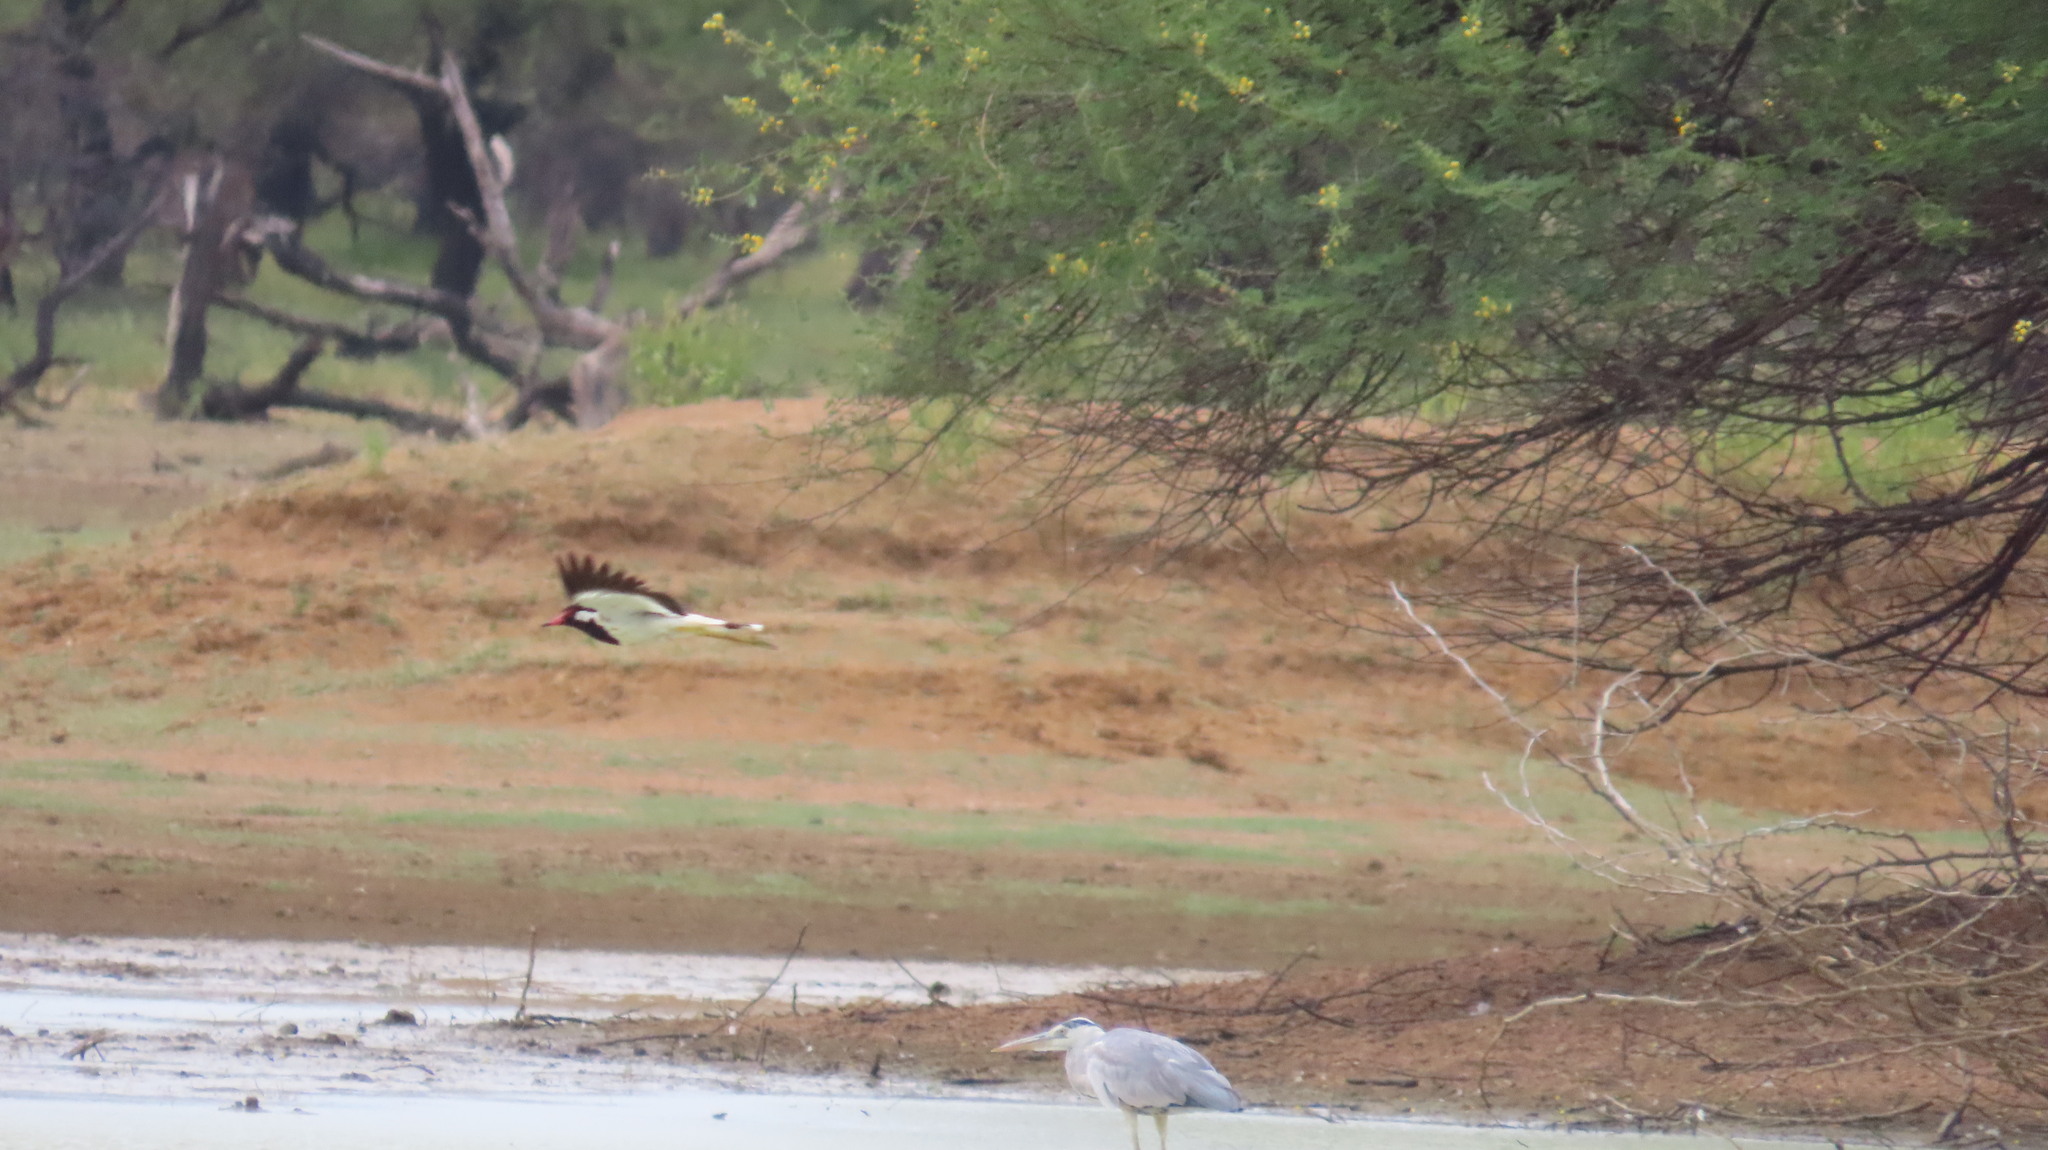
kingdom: Animalia
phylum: Chordata
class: Aves
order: Charadriiformes
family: Charadriidae
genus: Vanellus
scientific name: Vanellus indicus
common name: Red-wattled lapwing
